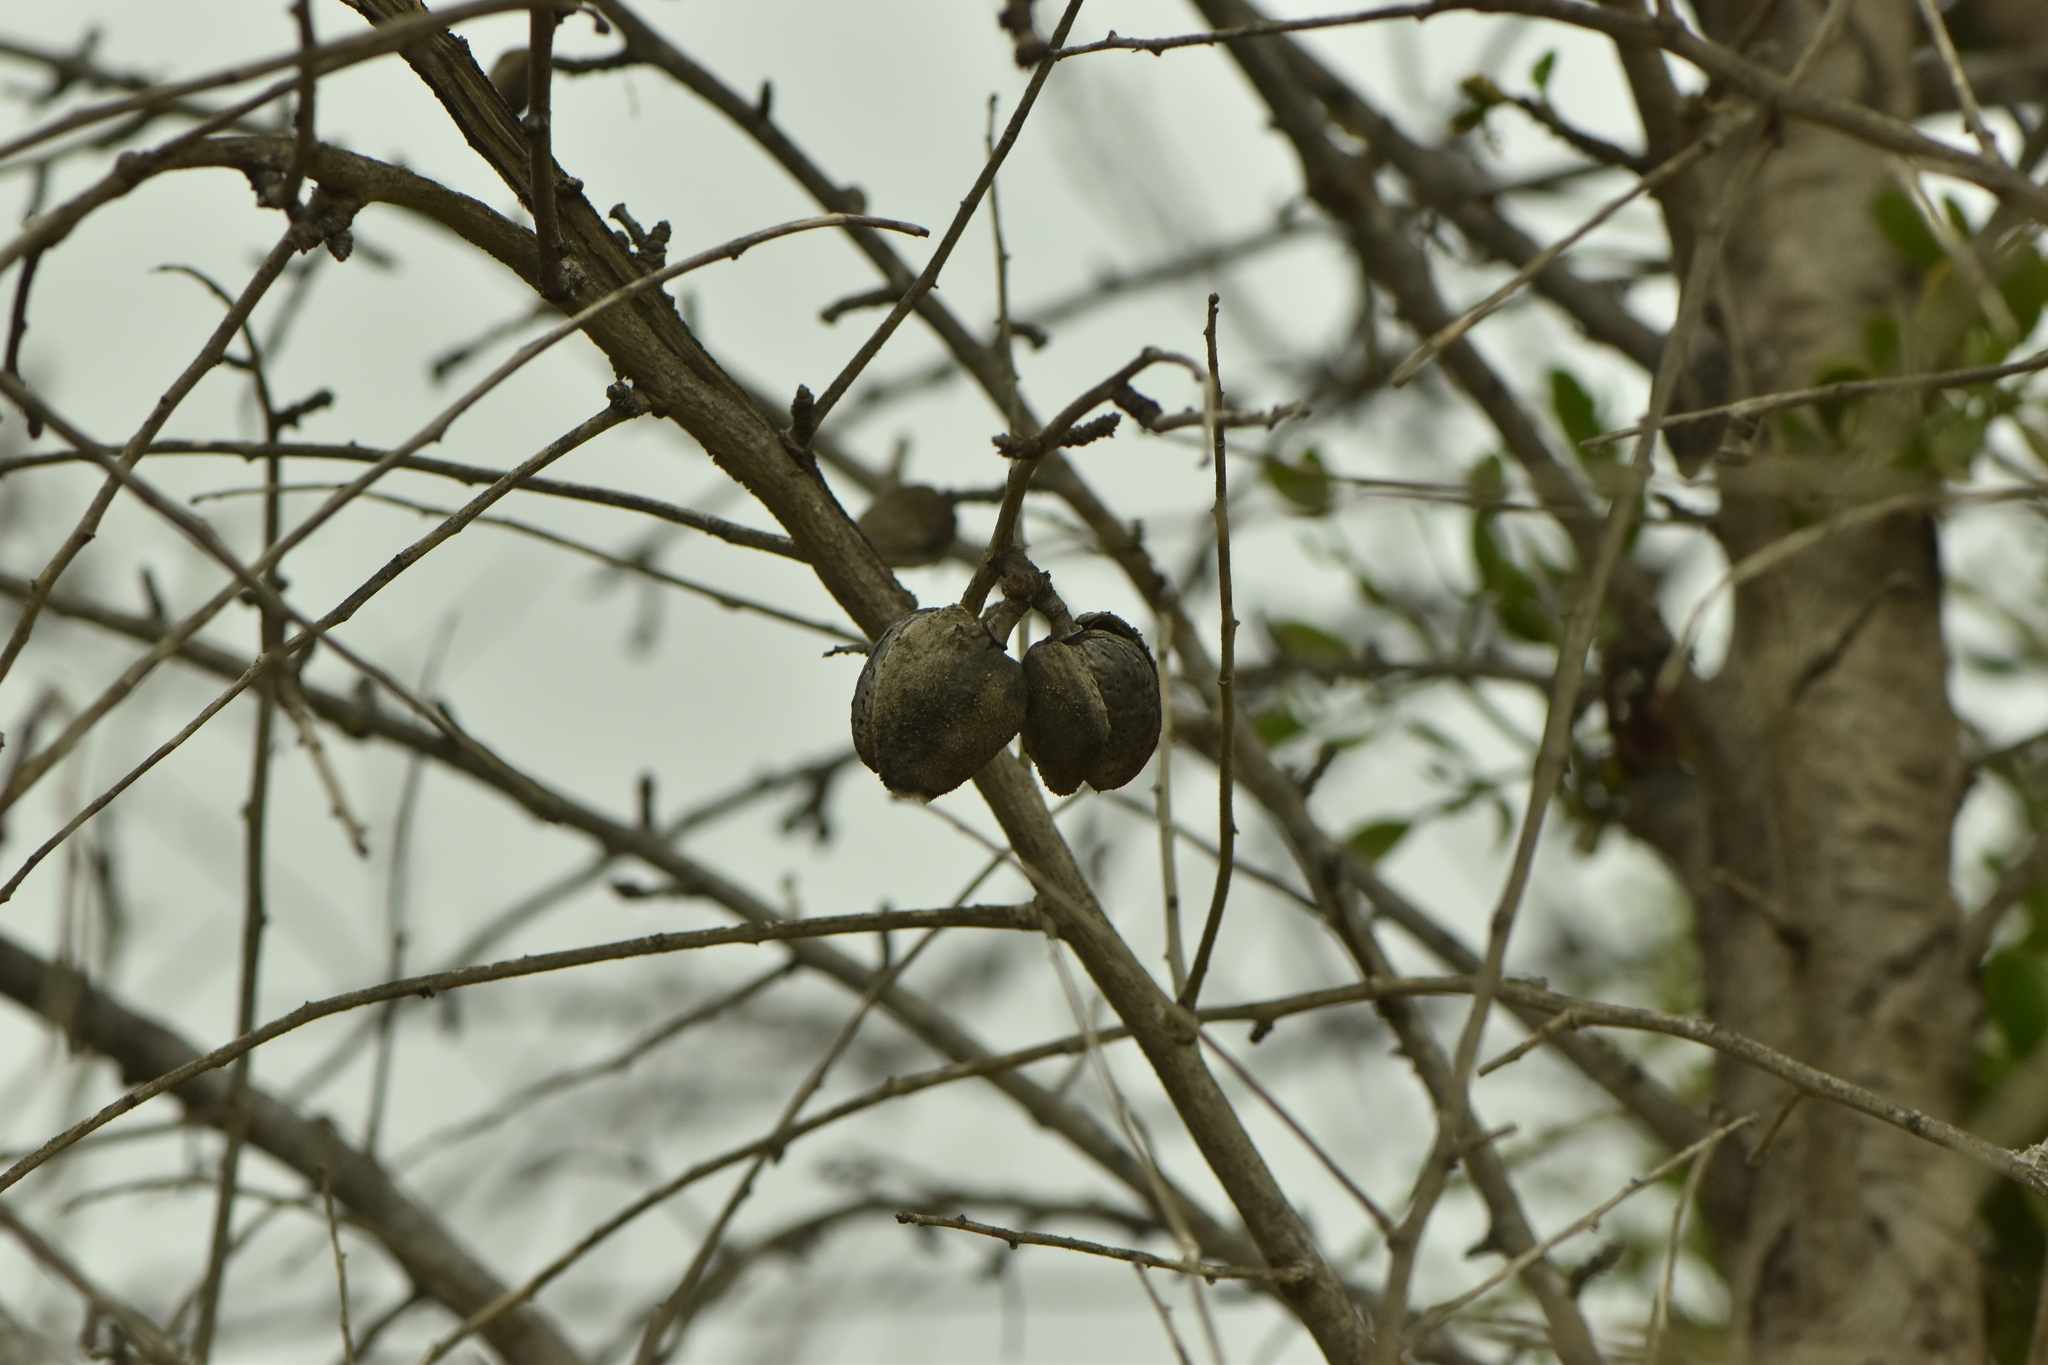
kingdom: Plantae
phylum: Tracheophyta
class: Magnoliopsida
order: Santalales
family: Viscaceae
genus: Viscum
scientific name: Viscum cruciatum
